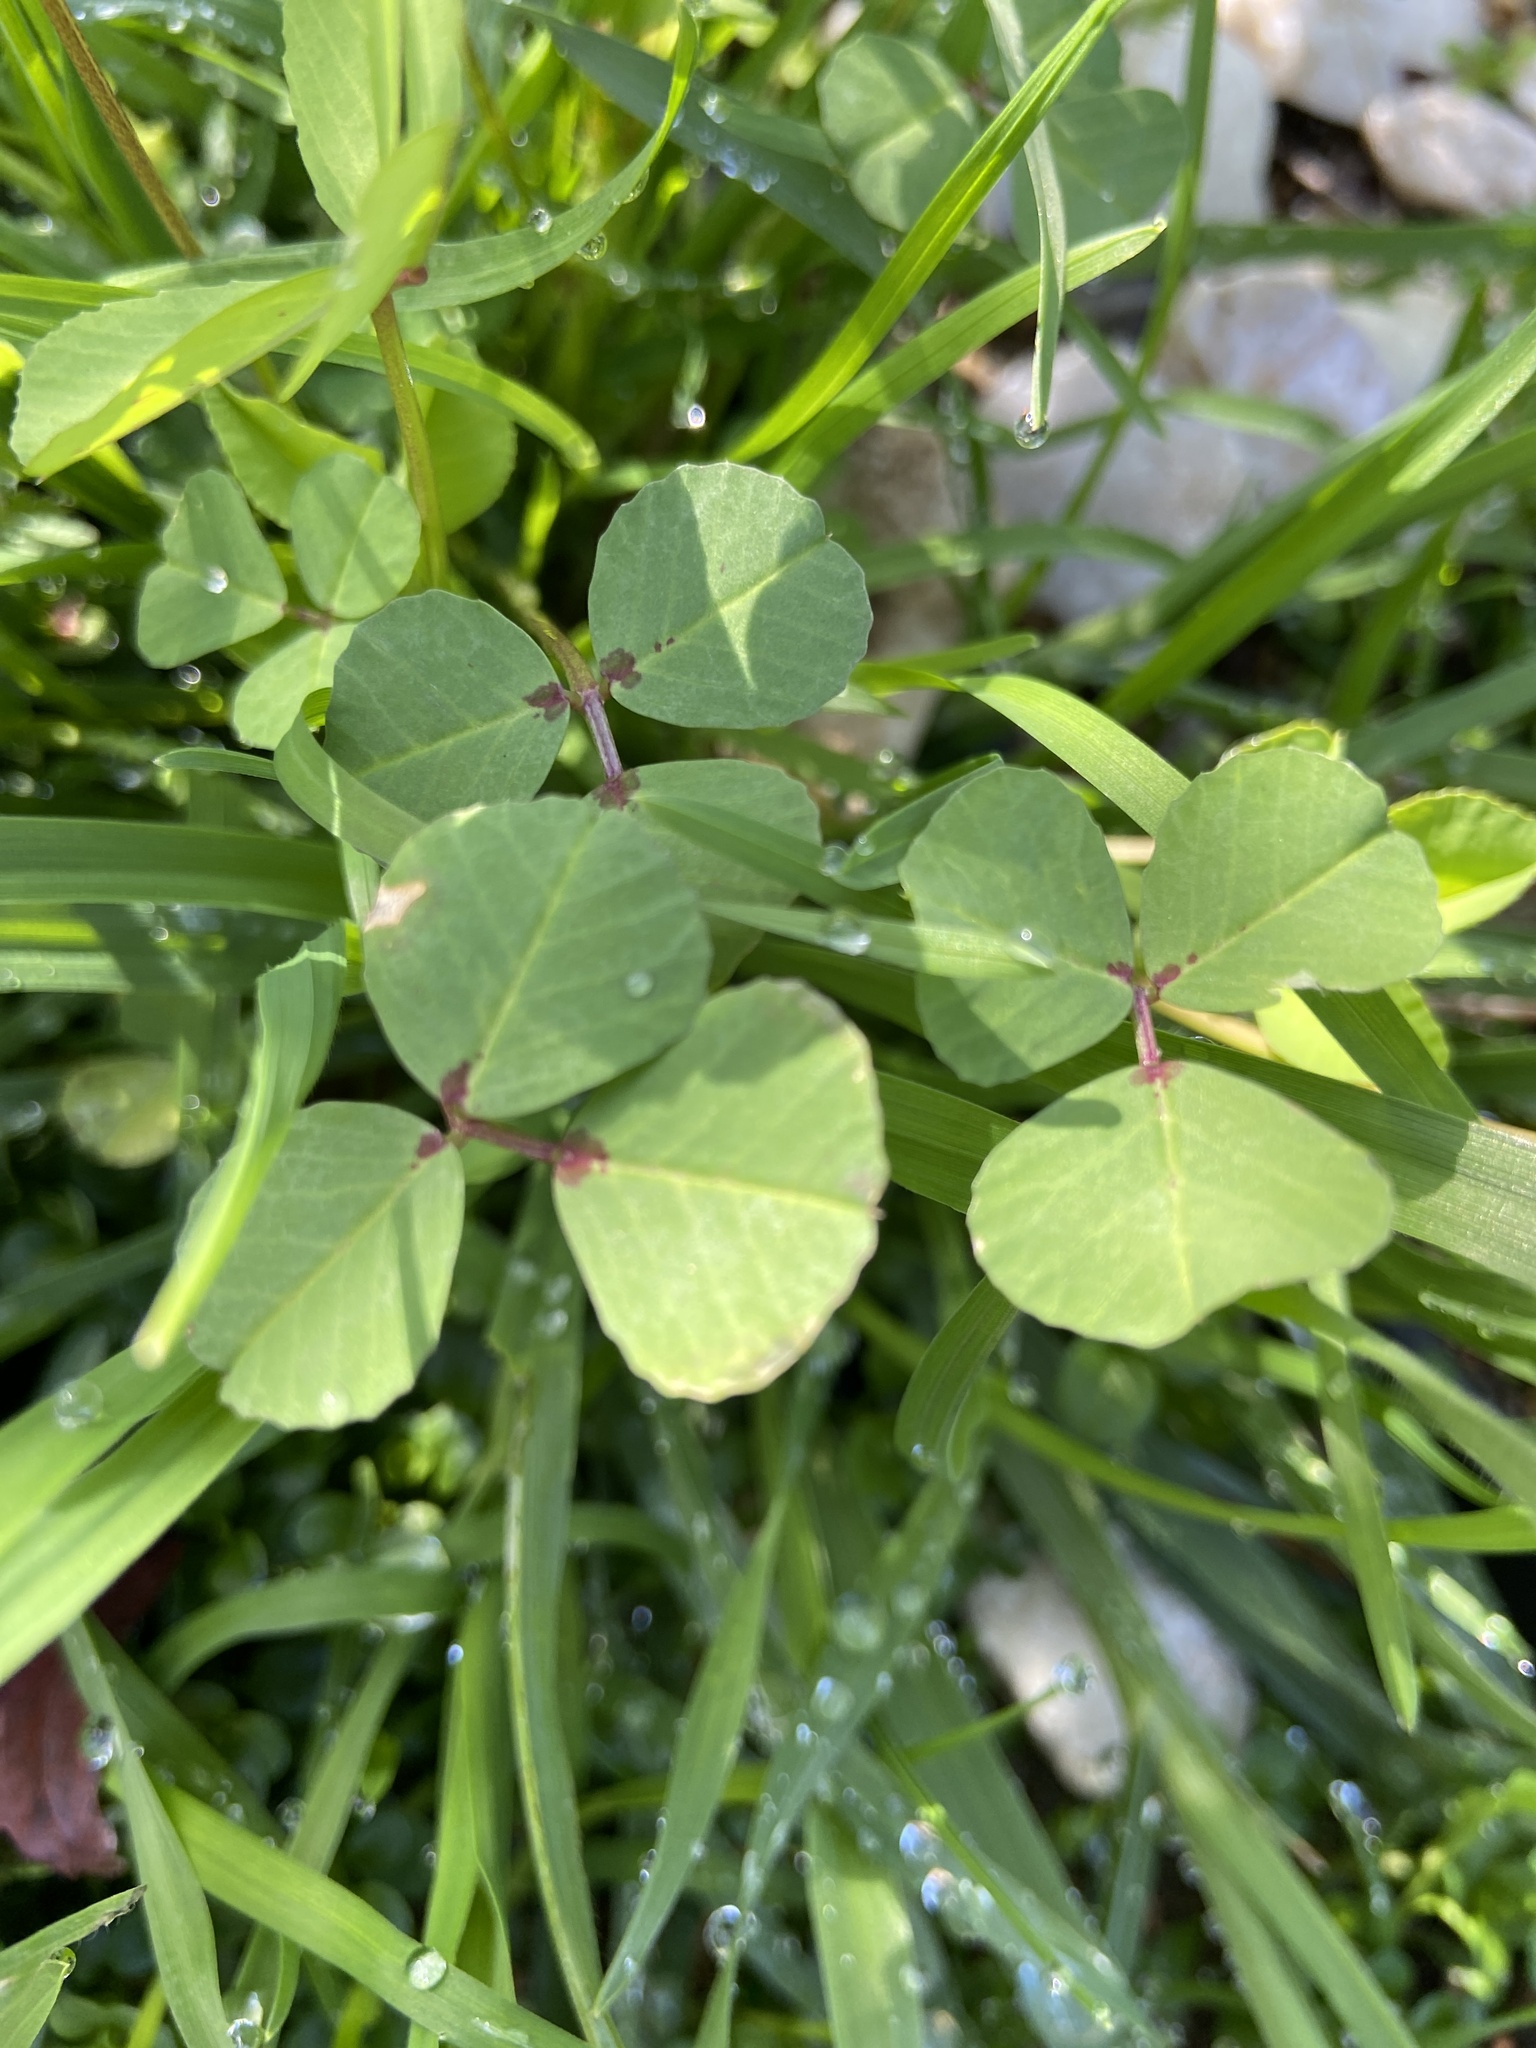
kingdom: Plantae
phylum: Tracheophyta
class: Magnoliopsida
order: Fabales
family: Fabaceae
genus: Medicago
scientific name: Medicago polymorpha
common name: Burclover
